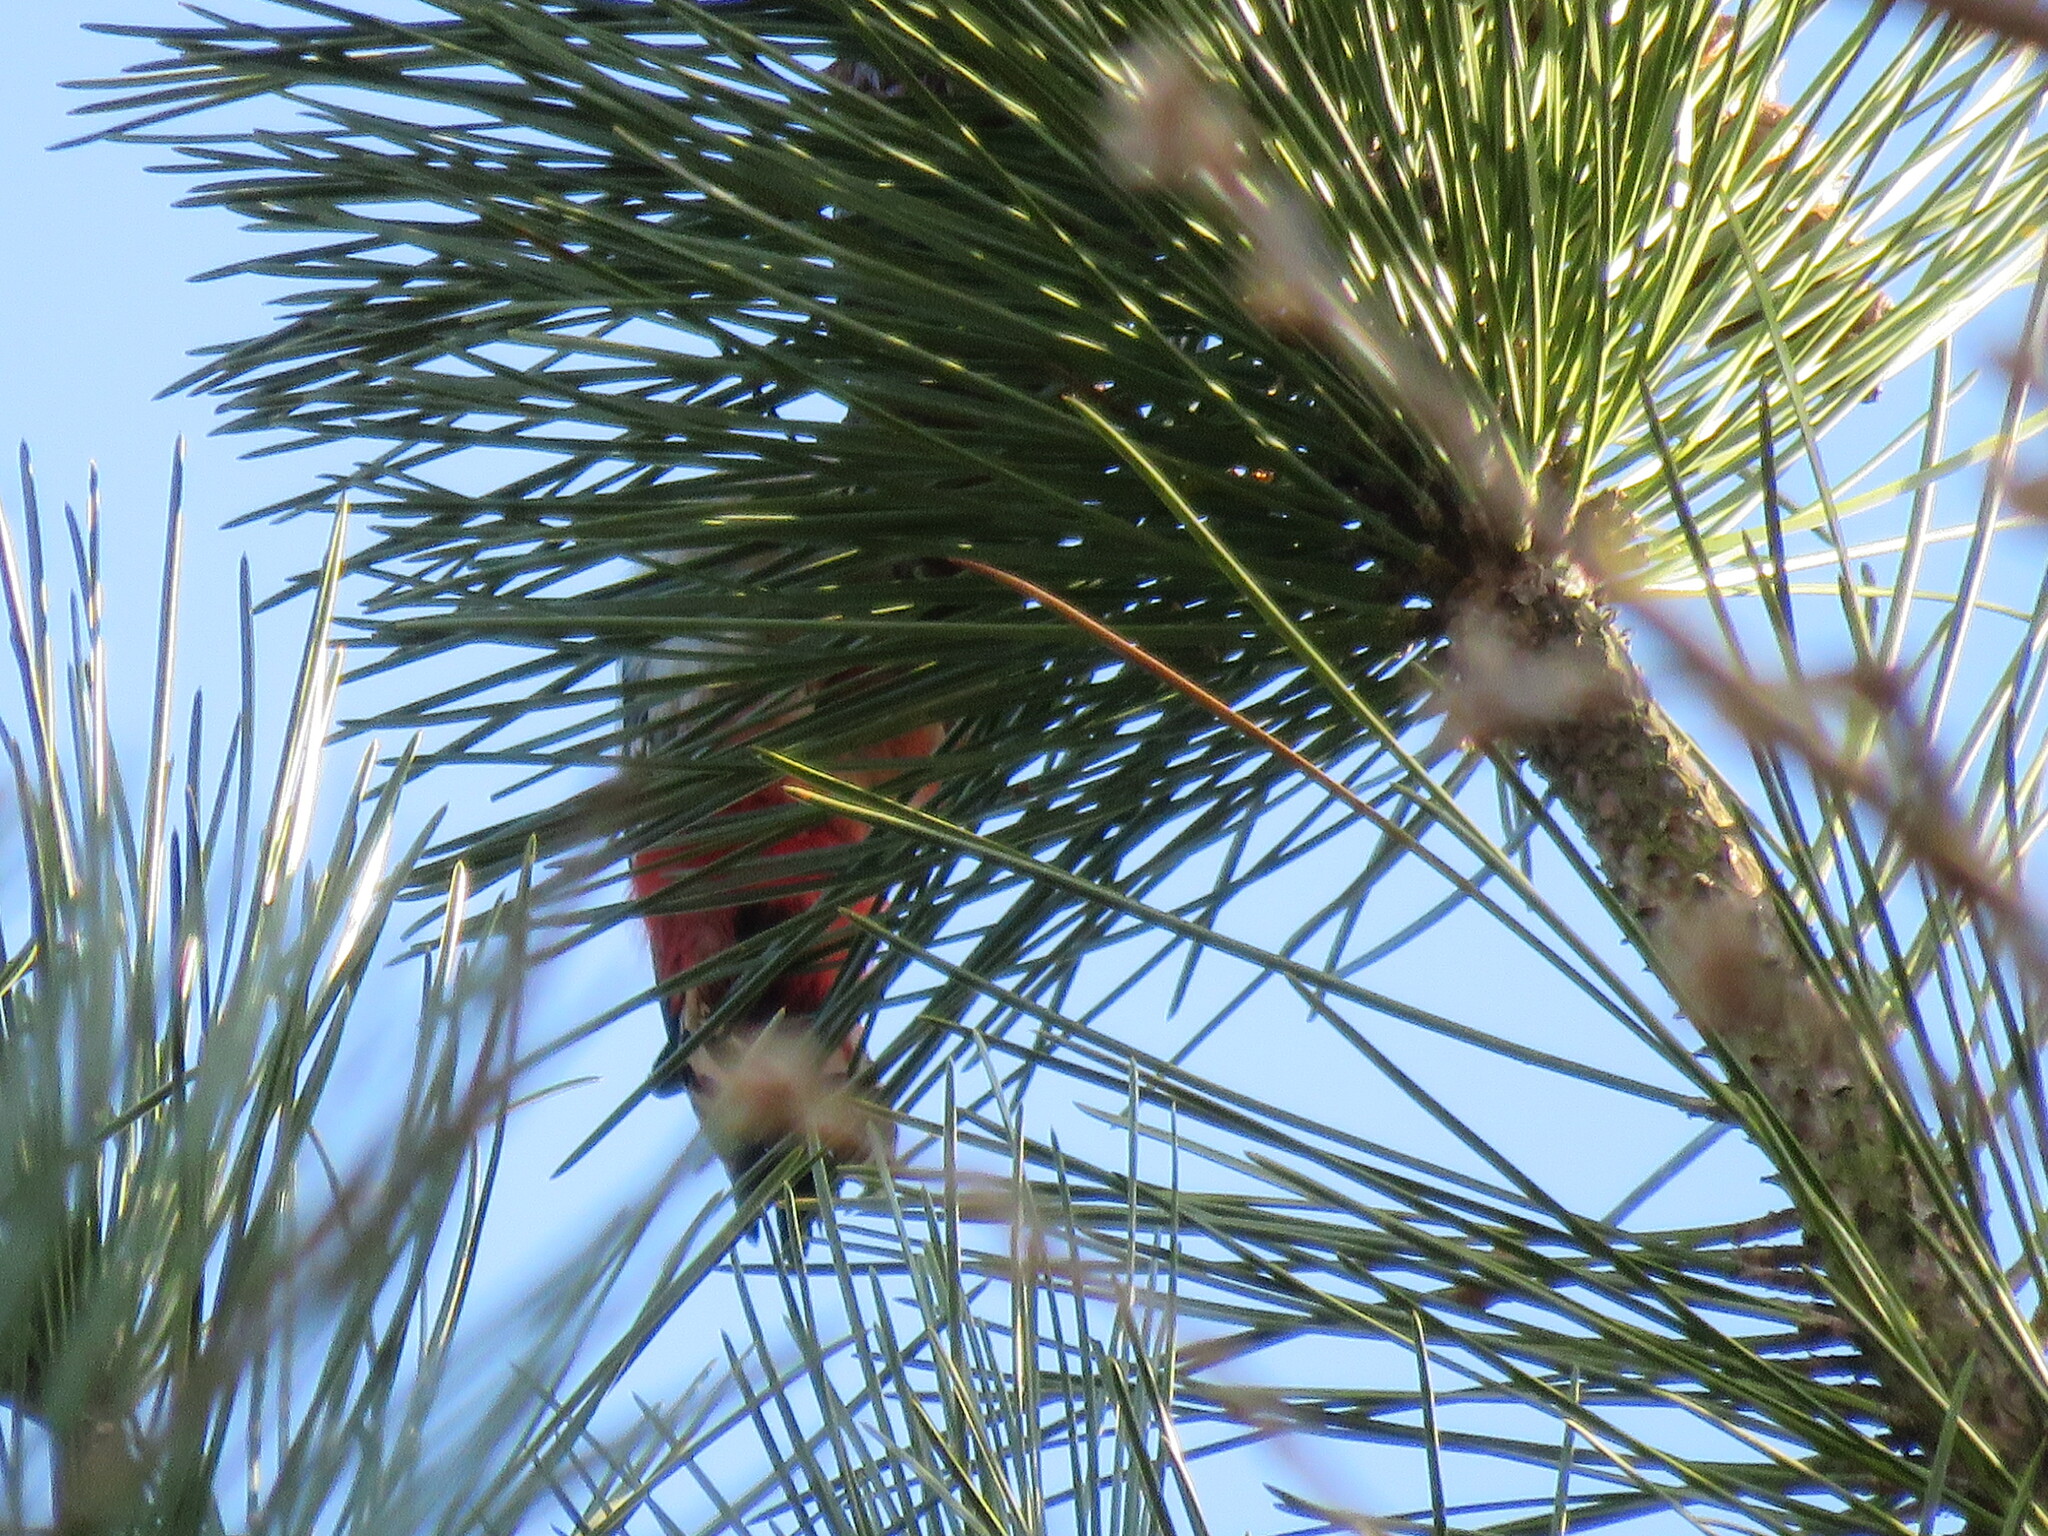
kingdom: Animalia
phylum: Chordata
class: Aves
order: Piciformes
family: Picidae
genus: Dendrocopos
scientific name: Dendrocopos major
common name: Great spotted woodpecker
